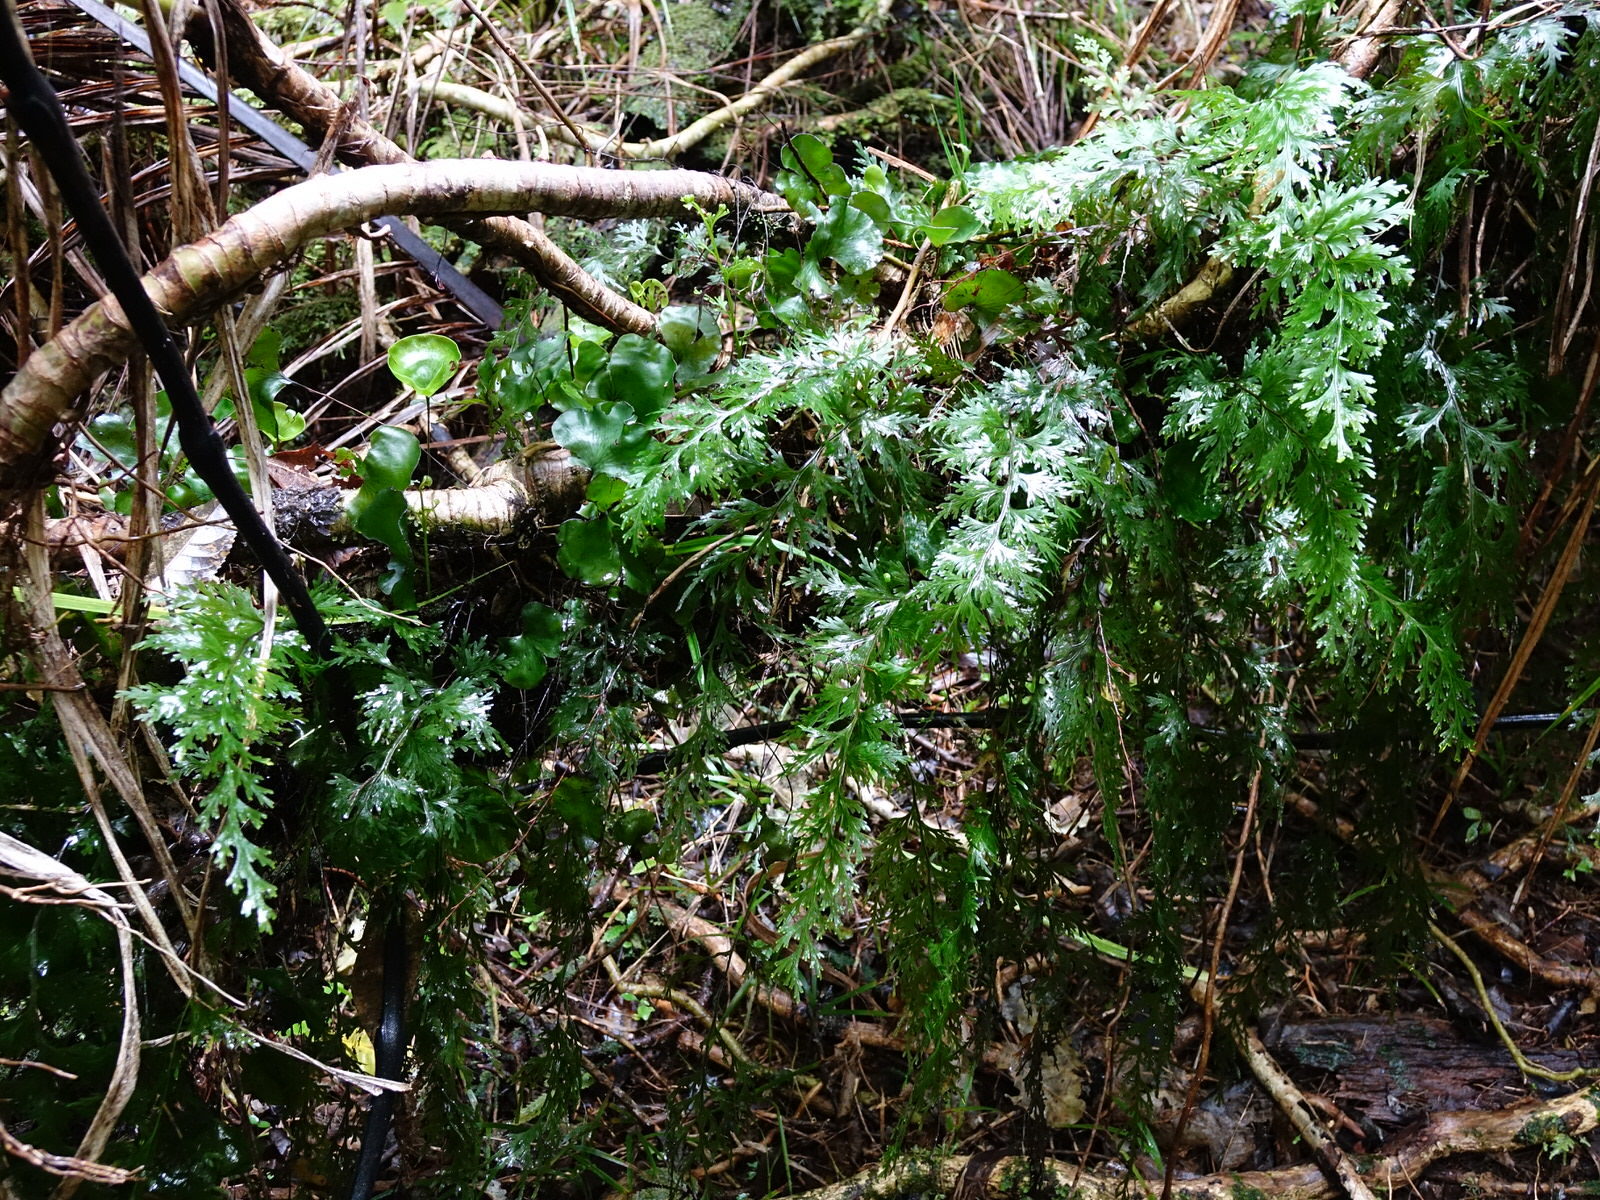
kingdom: Plantae
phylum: Tracheophyta
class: Polypodiopsida
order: Hymenophyllales
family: Hymenophyllaceae
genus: Hymenophyllum
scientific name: Hymenophyllum dilatatum
